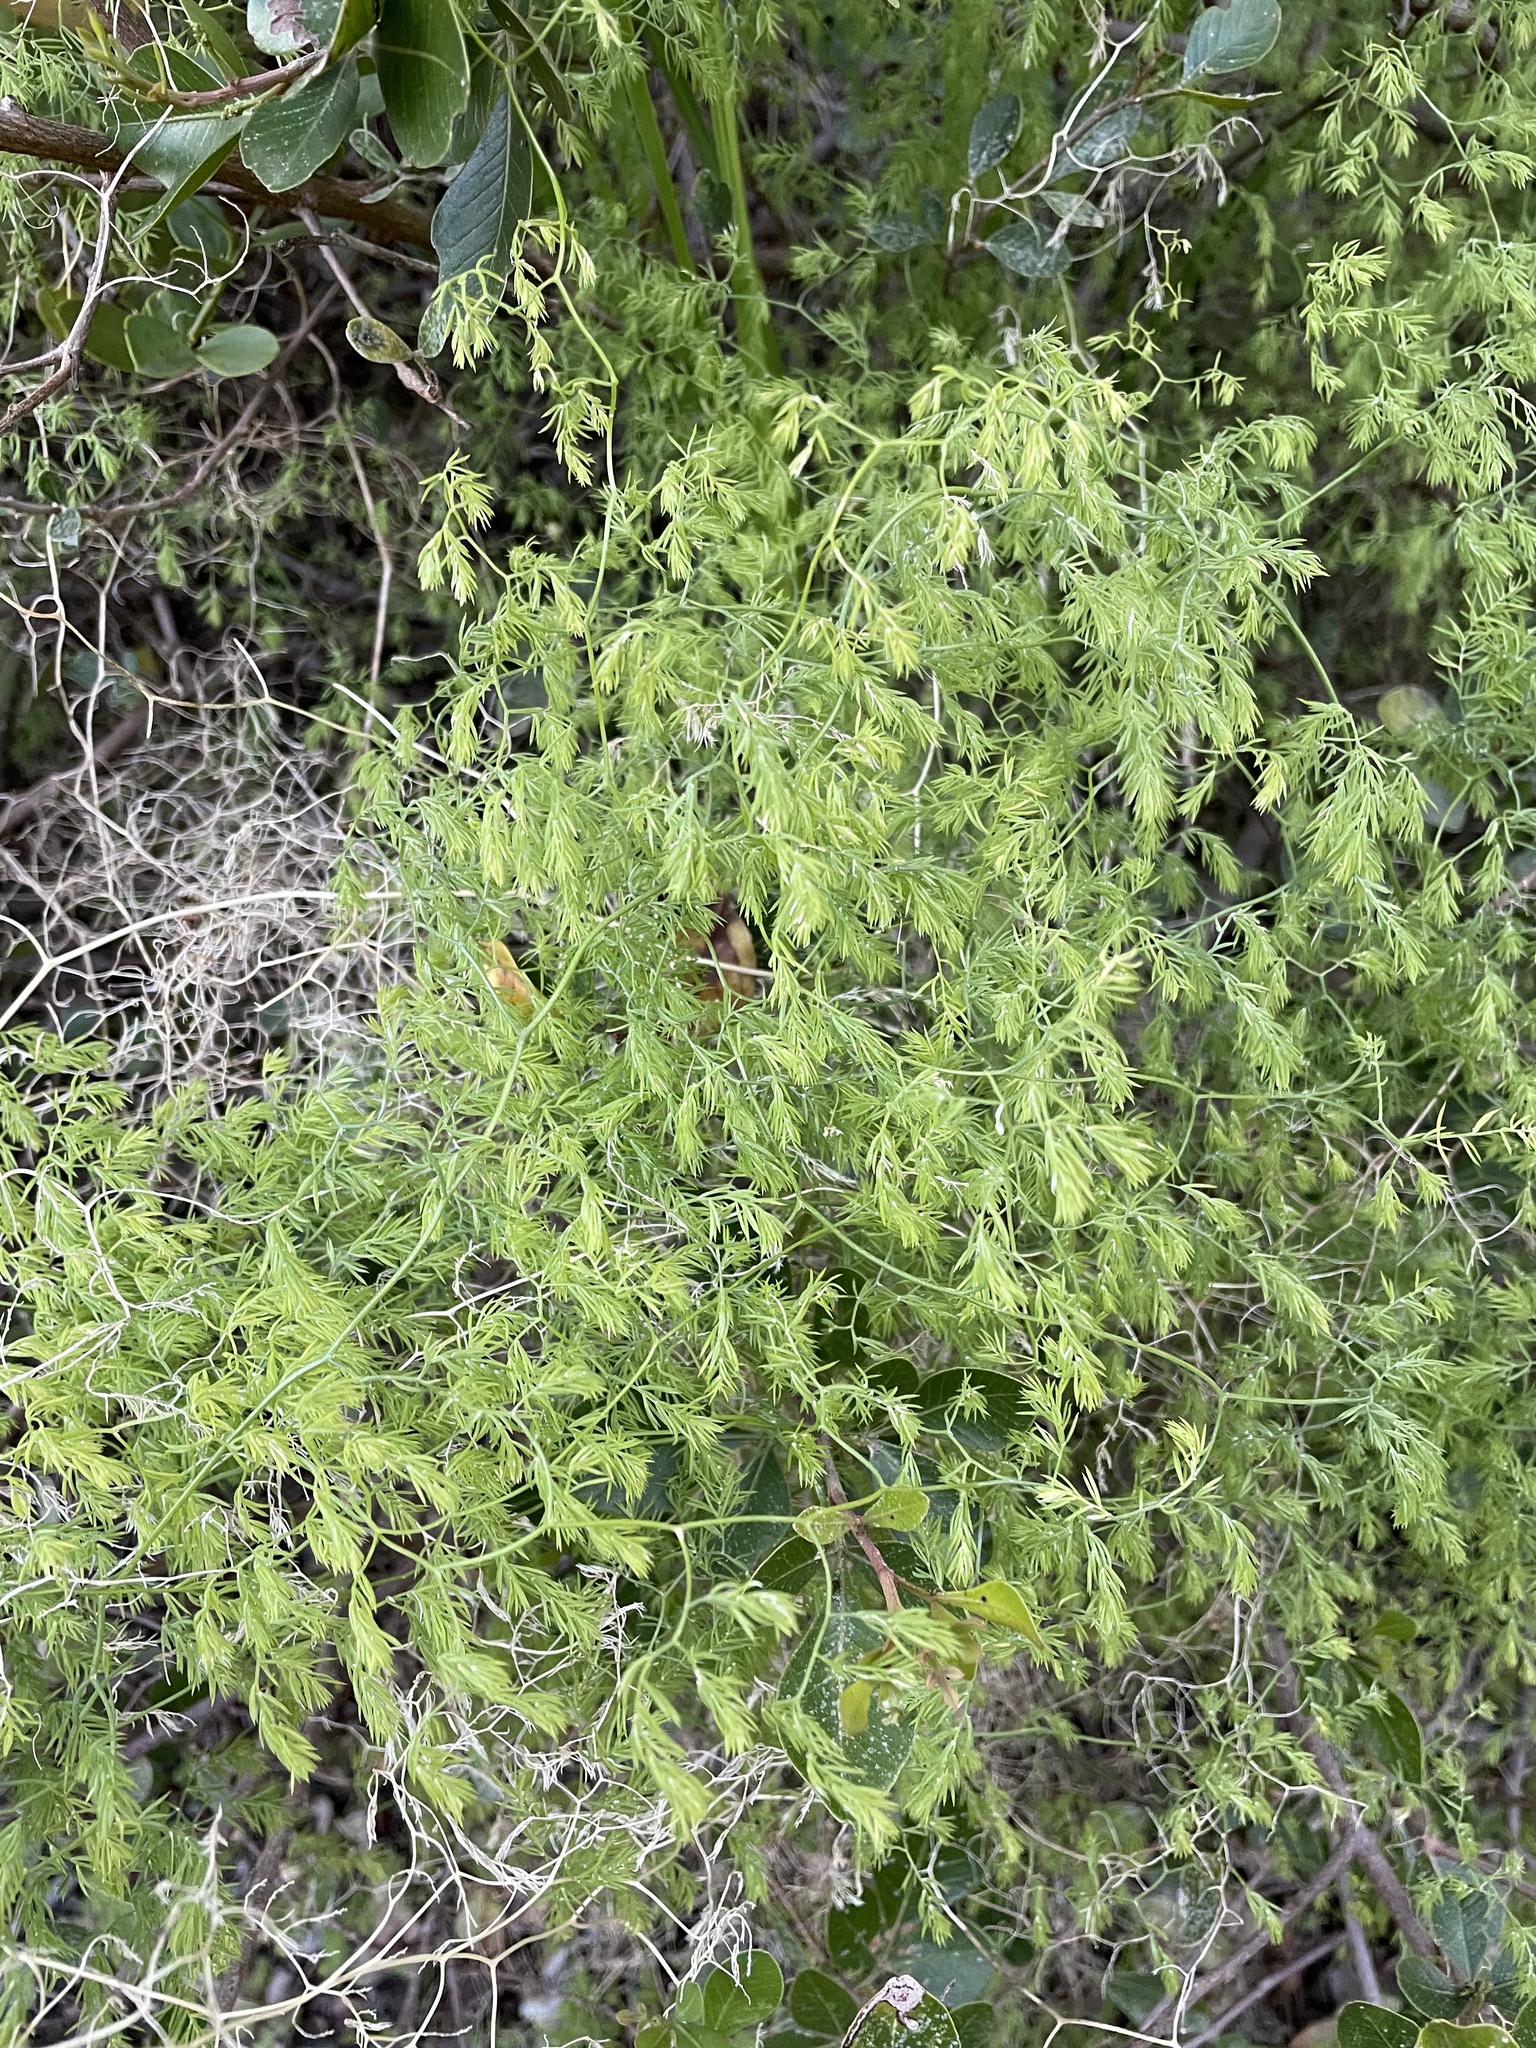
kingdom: Plantae
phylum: Tracheophyta
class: Liliopsida
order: Asparagales
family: Asparagaceae
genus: Asparagus
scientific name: Asparagus declinatus
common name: Bridal-creeper
